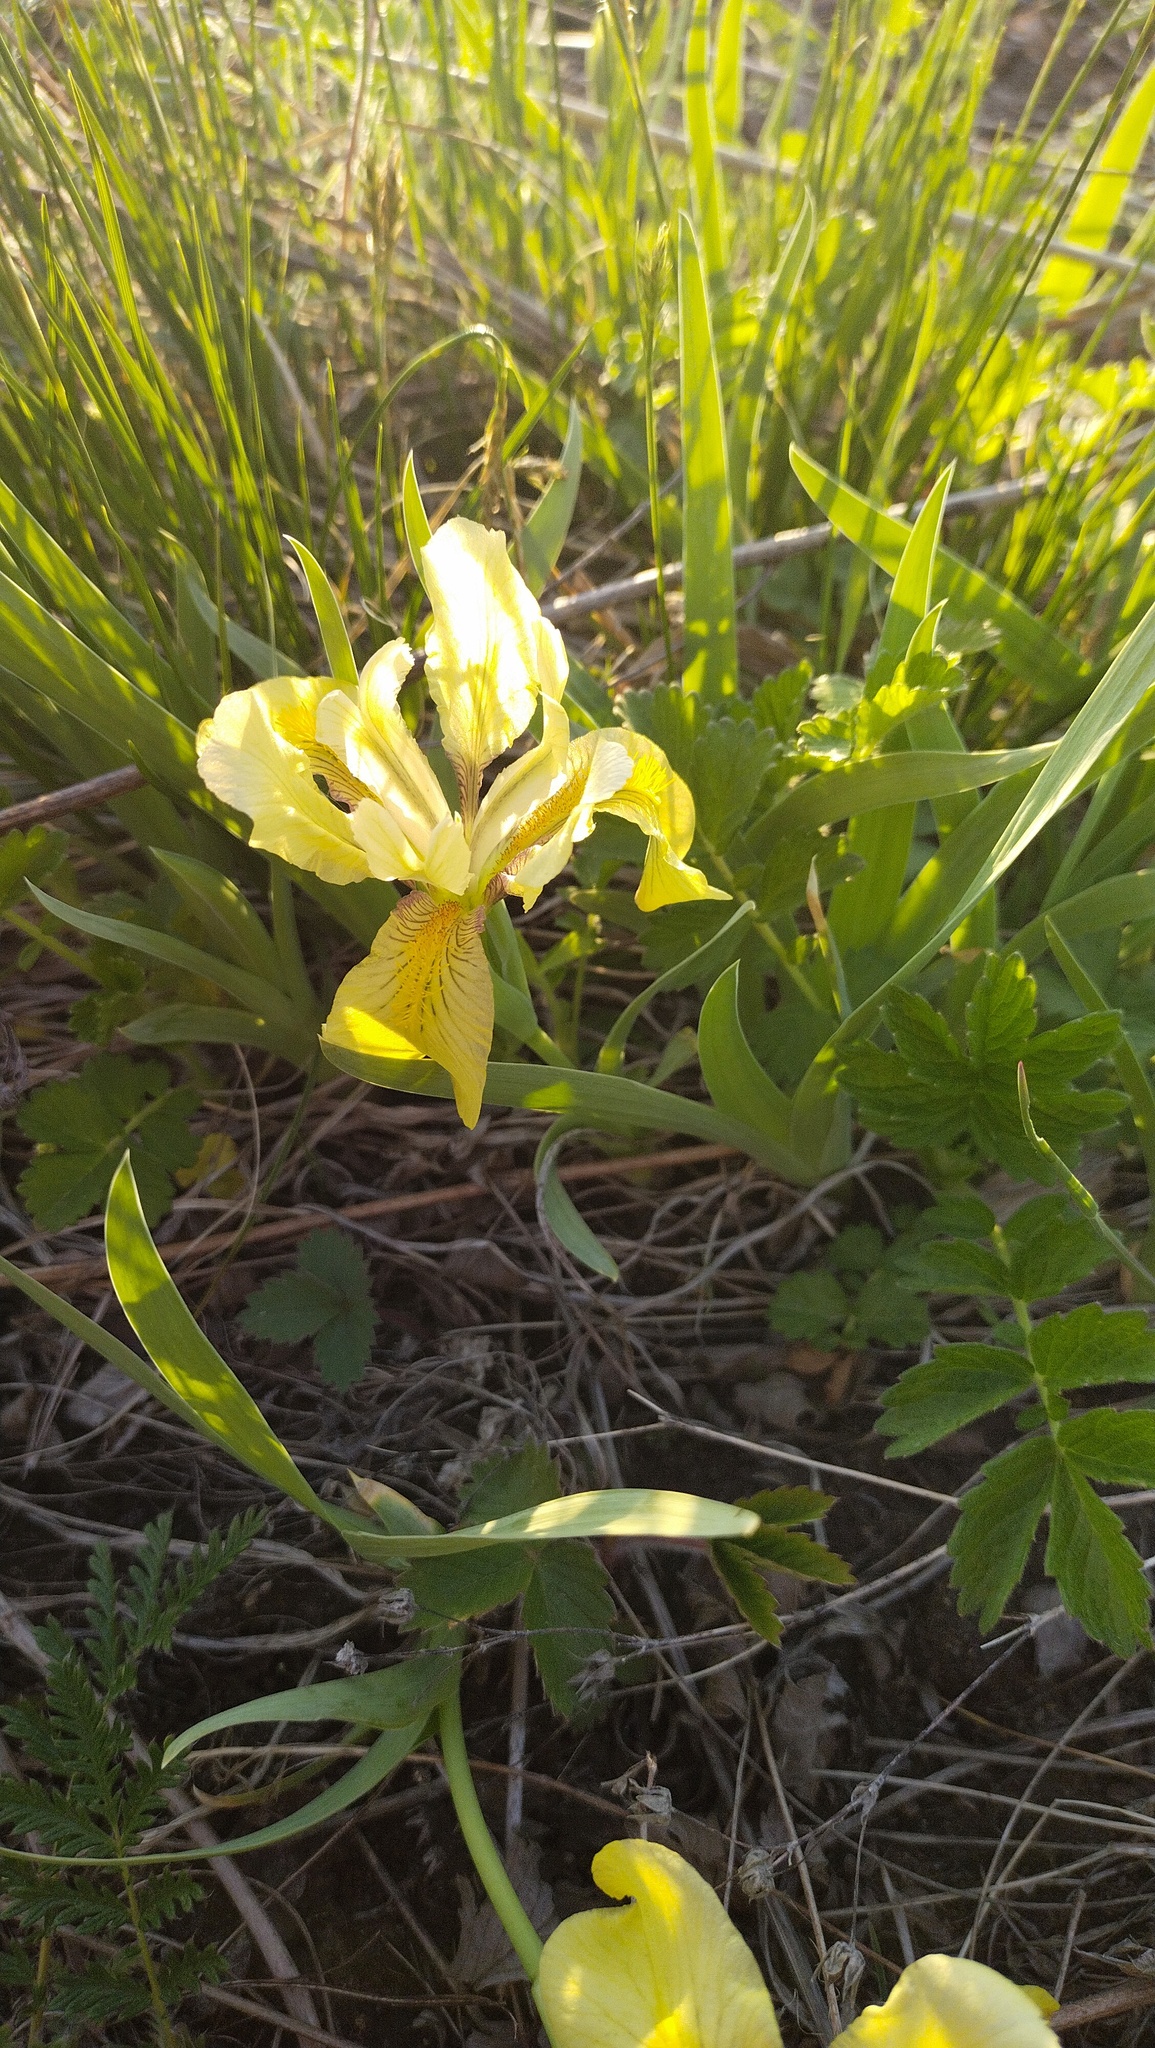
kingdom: Plantae
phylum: Tracheophyta
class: Liliopsida
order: Asparagales
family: Iridaceae
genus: Iris
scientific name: Iris humilis
